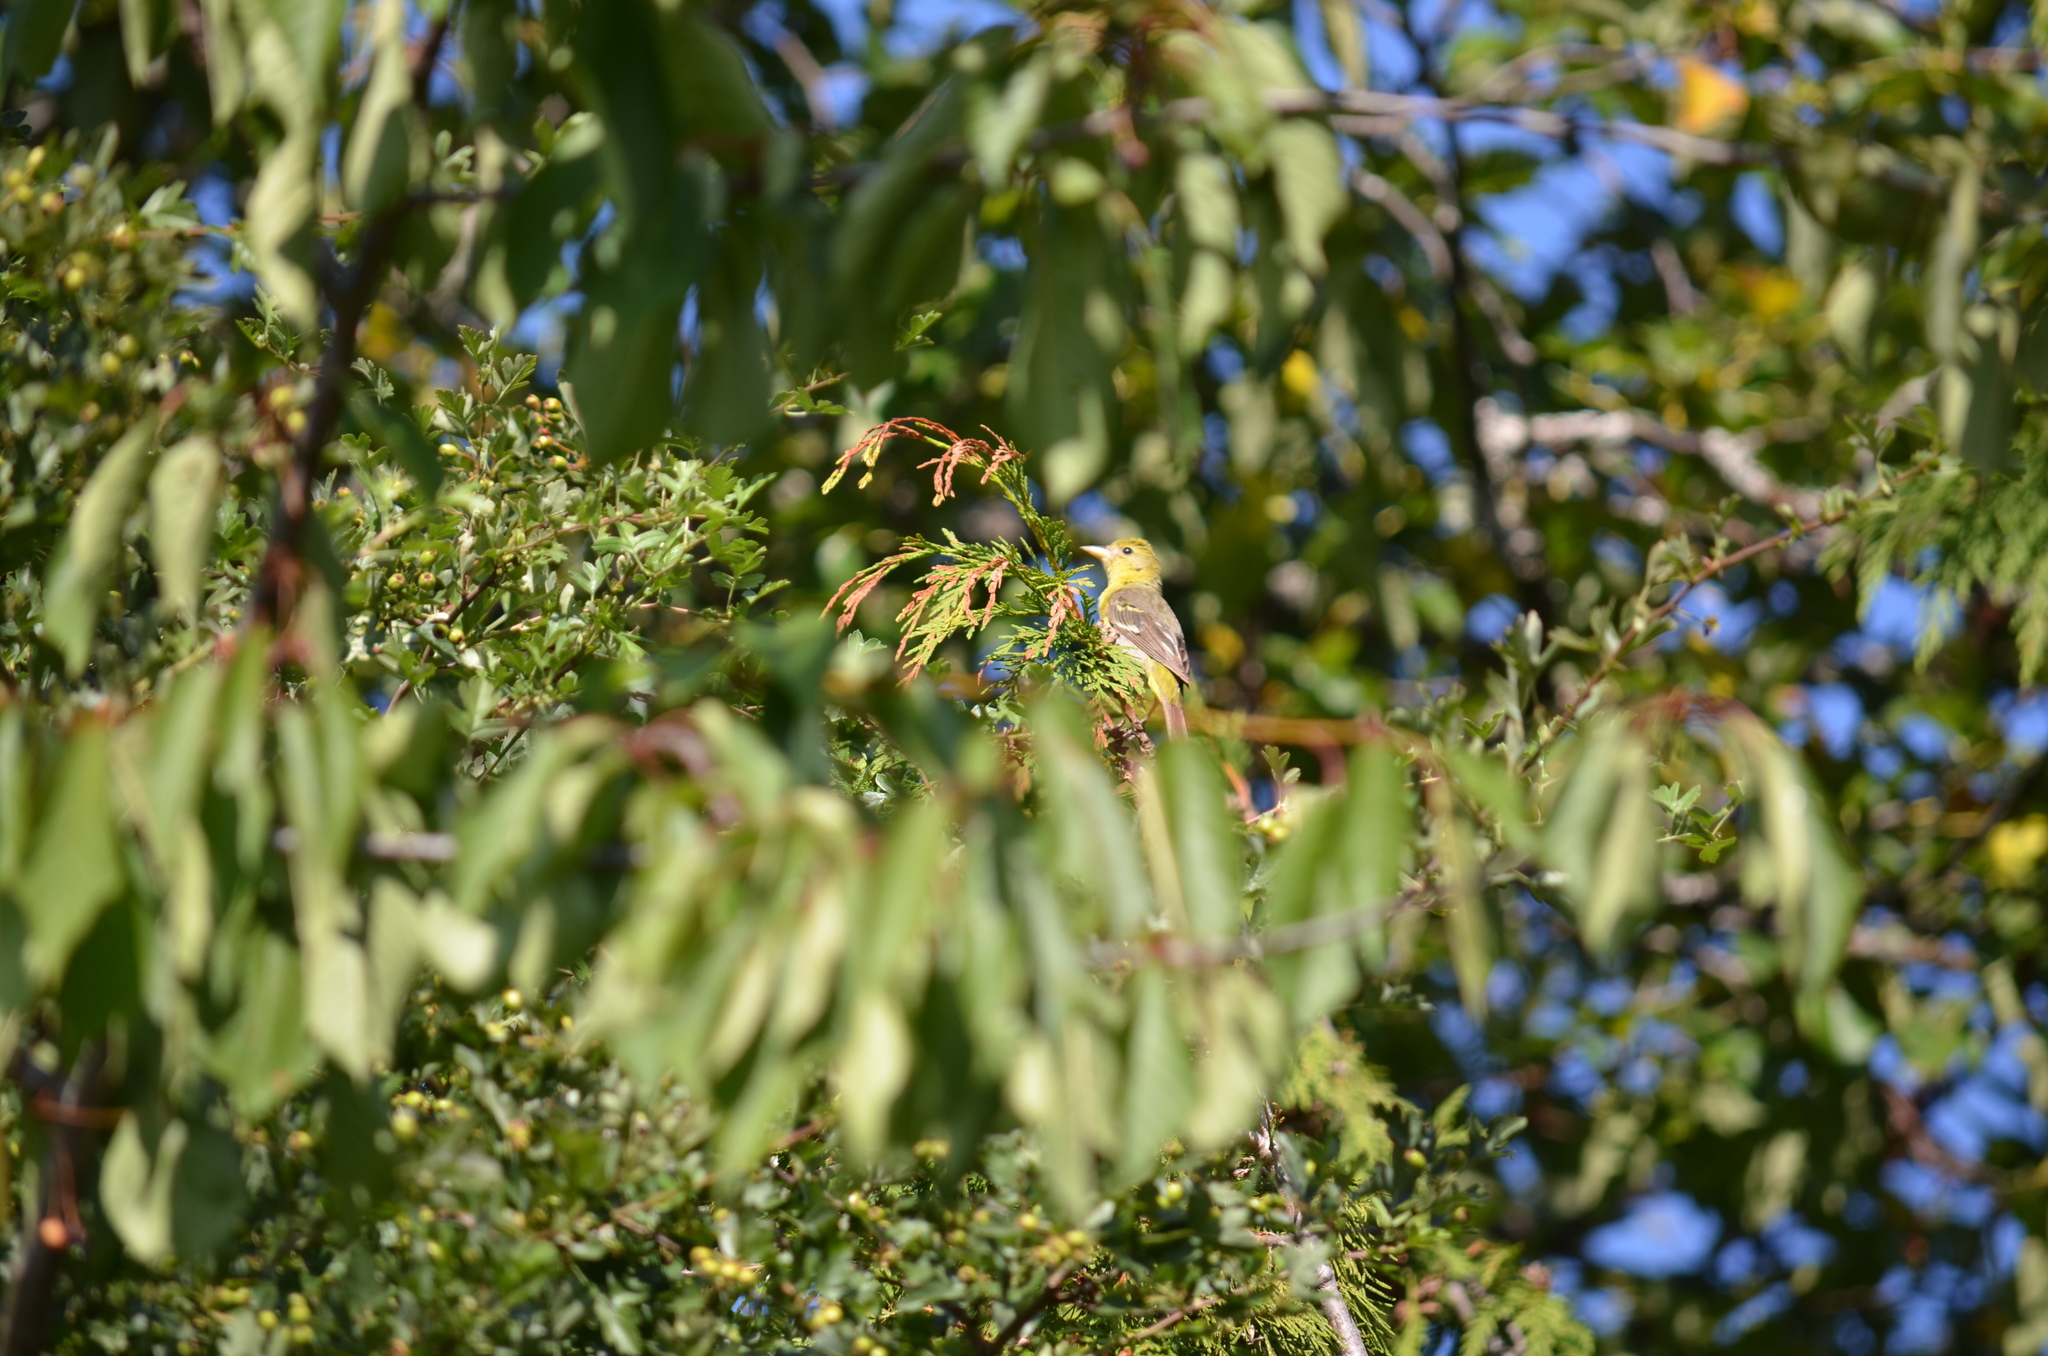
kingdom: Animalia
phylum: Chordata
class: Aves
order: Passeriformes
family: Cardinalidae
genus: Piranga
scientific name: Piranga ludoviciana
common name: Western tanager
